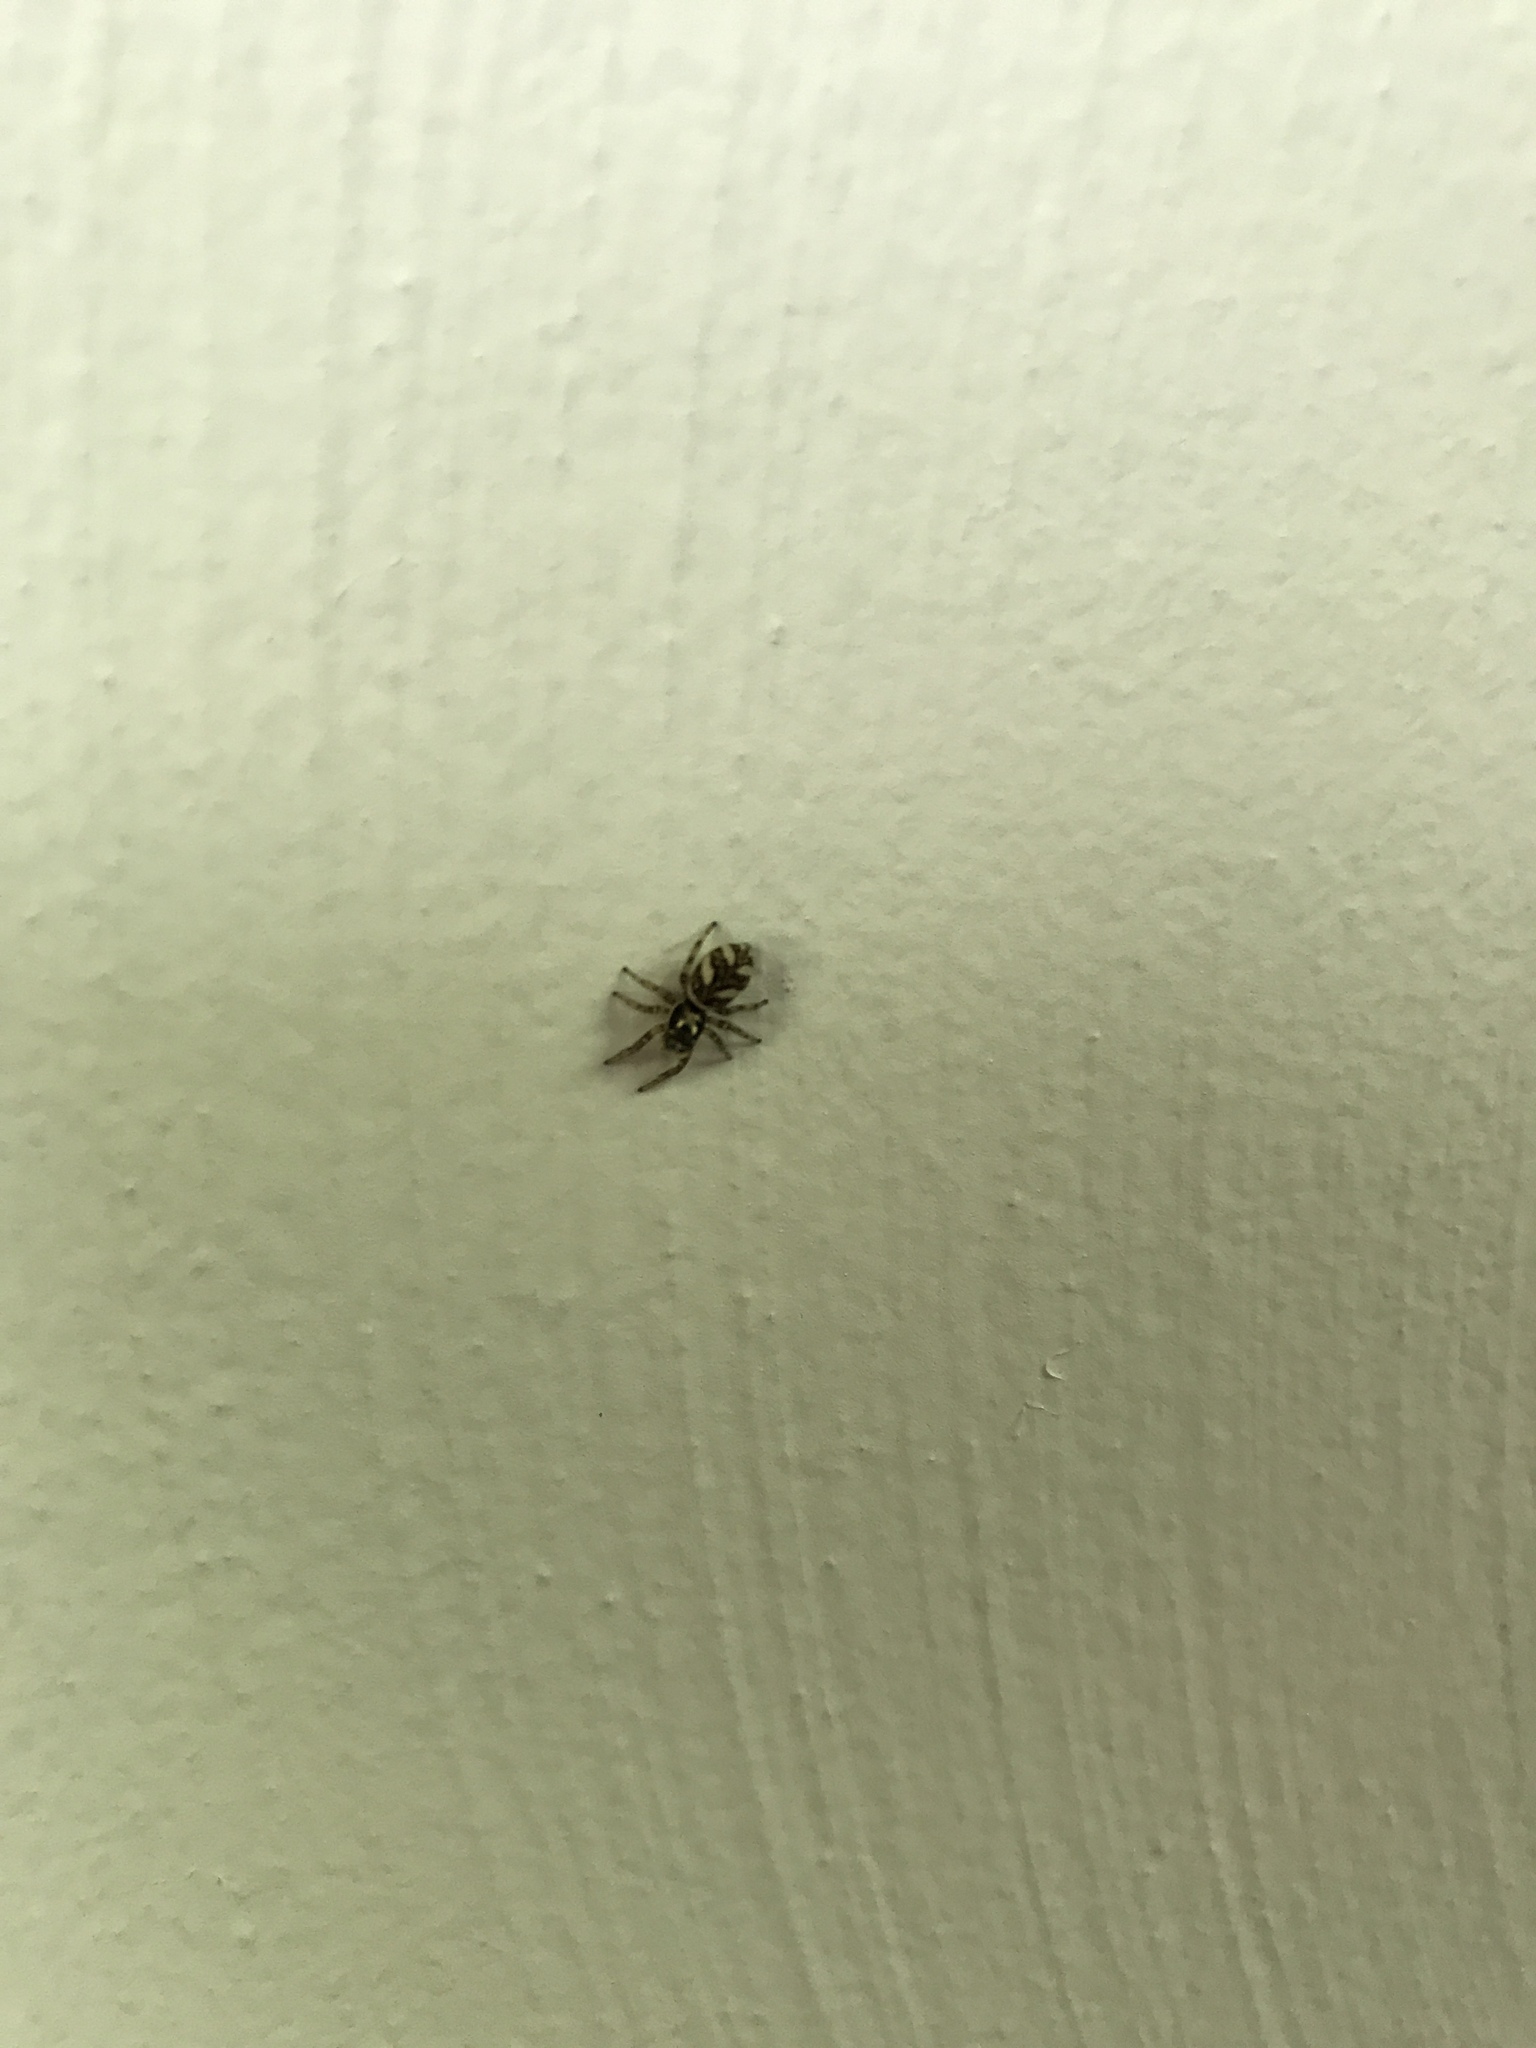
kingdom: Animalia
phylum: Arthropoda
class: Arachnida
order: Araneae
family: Salticidae
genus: Salticus
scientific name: Salticus scenicus
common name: Zebra jumper
